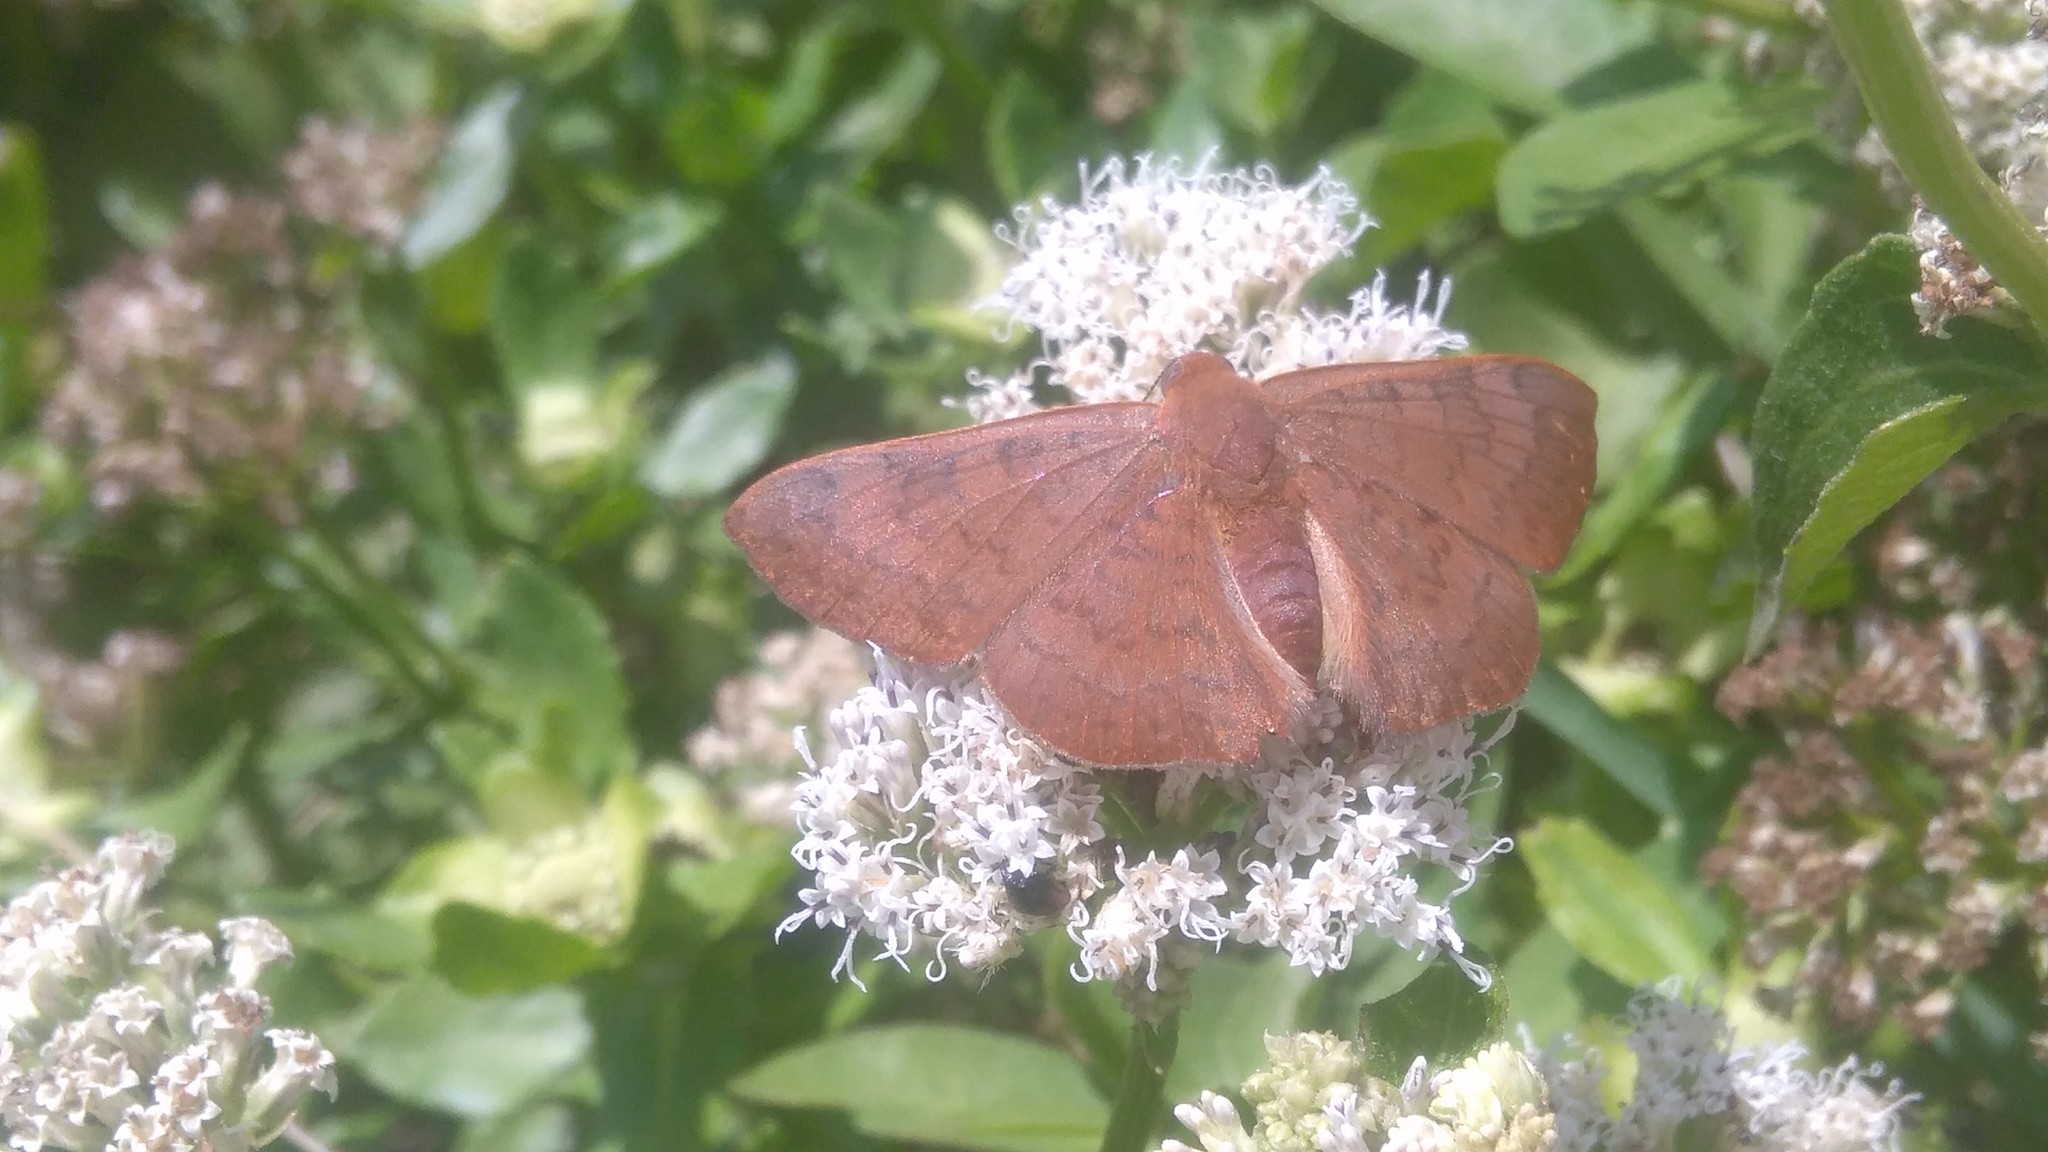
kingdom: Animalia
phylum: Arthropoda
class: Insecta
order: Lepidoptera
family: Lycaenidae
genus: Emesis
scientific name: Emesis russula
